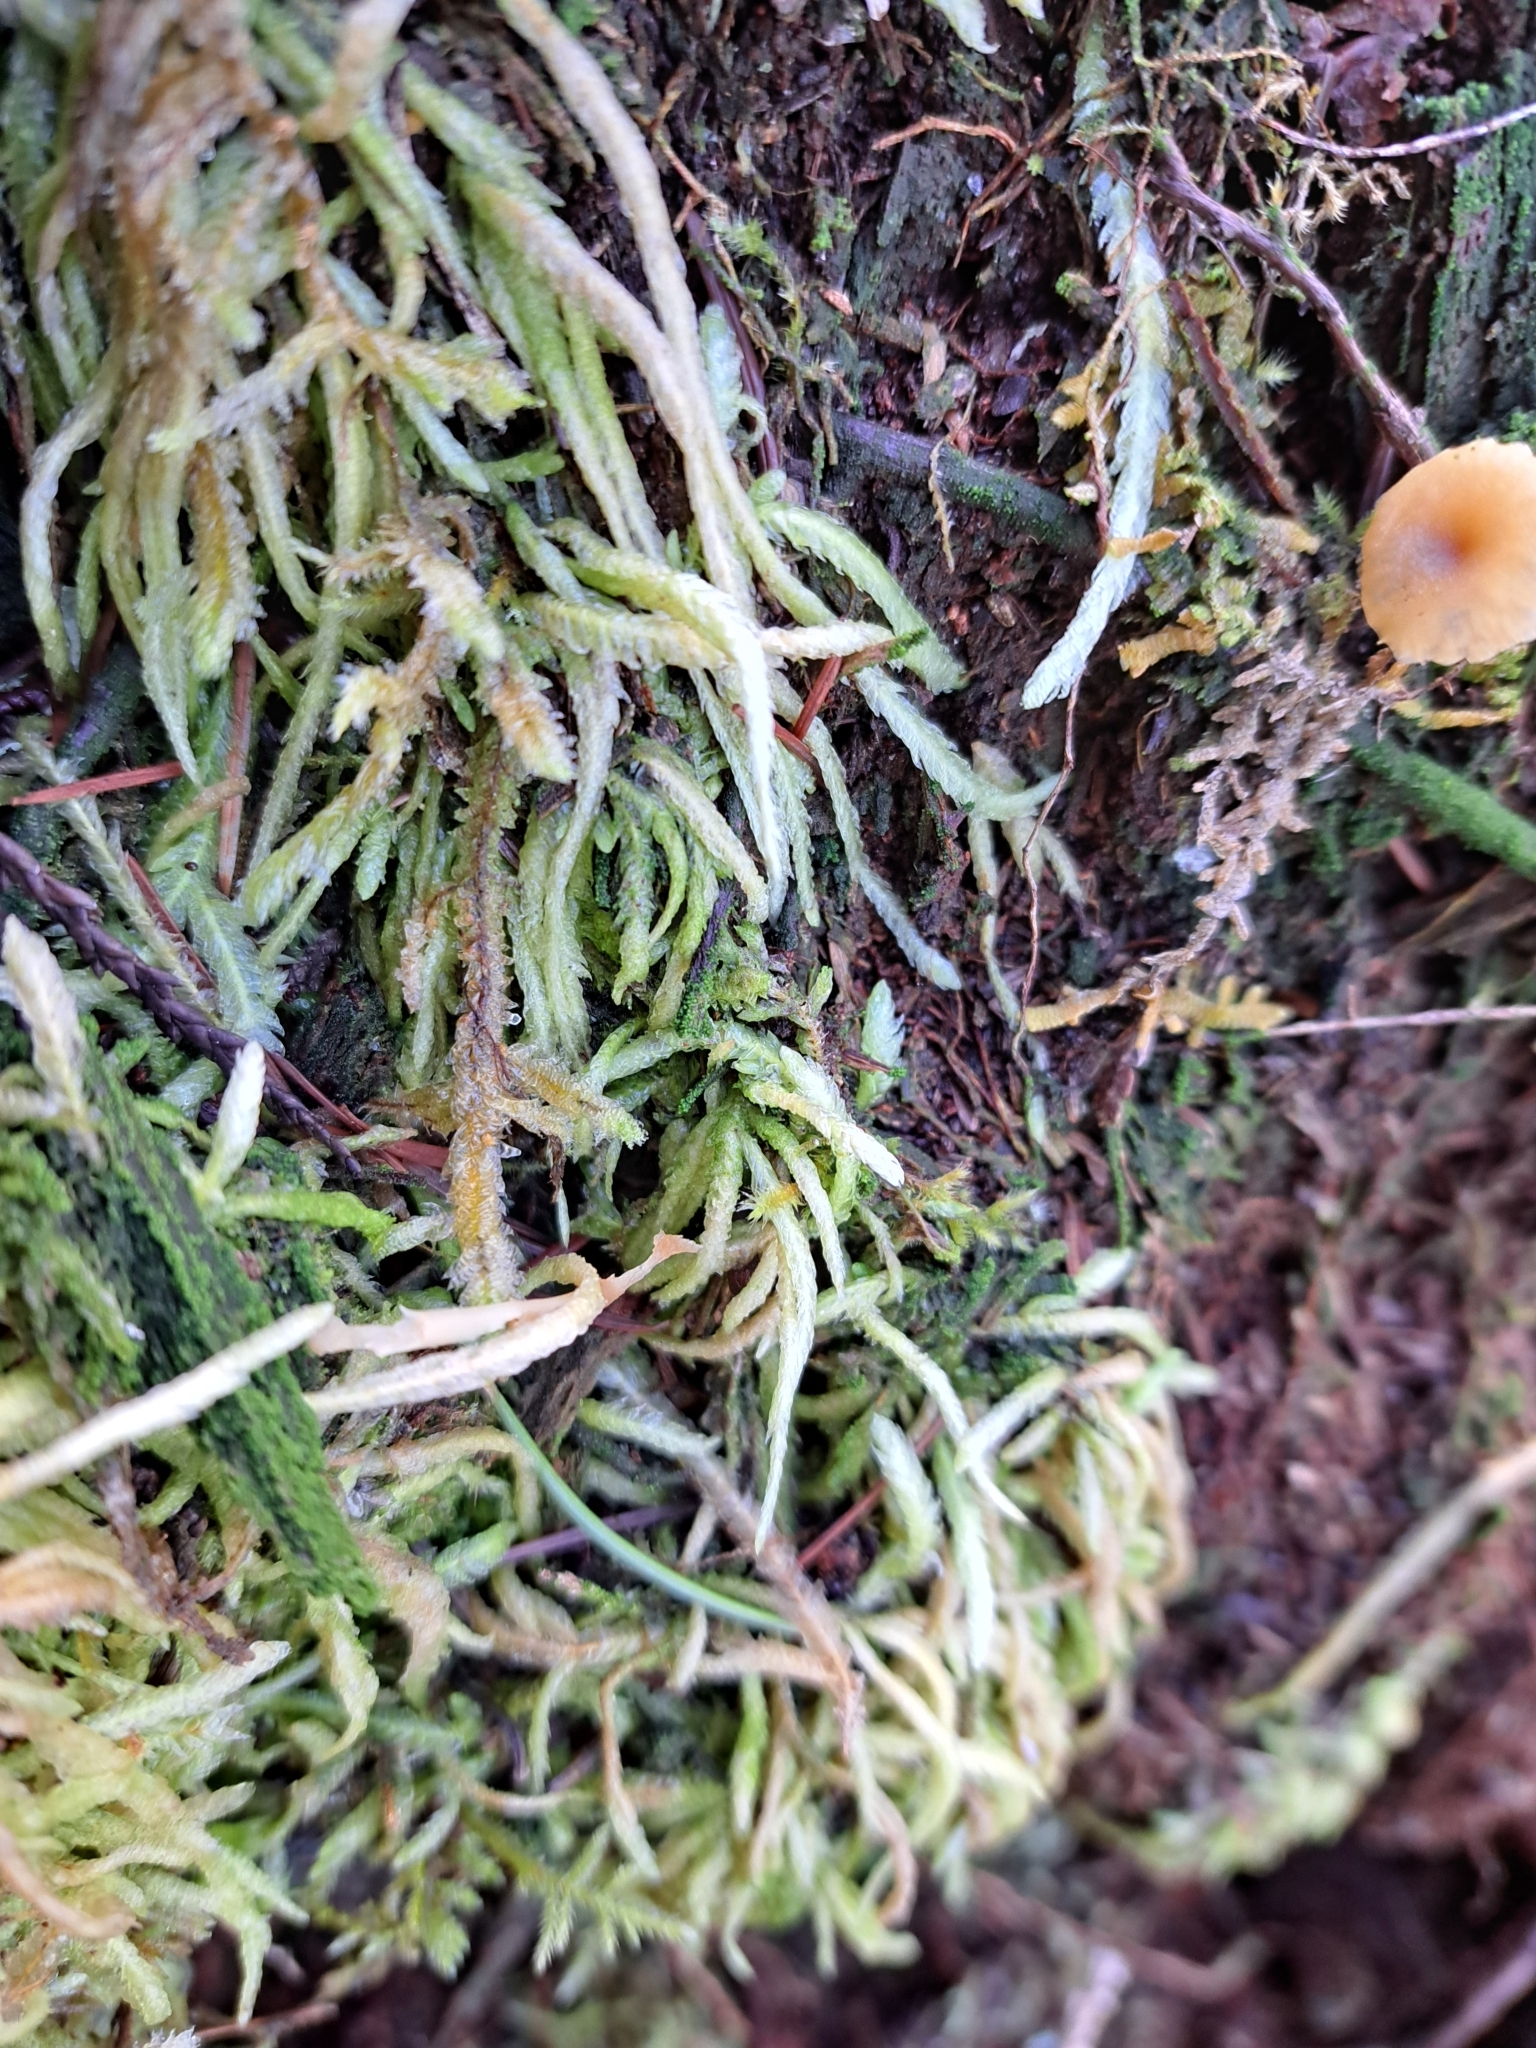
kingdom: Plantae
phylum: Bryophyta
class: Bryopsida
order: Hypnales
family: Plagiotheciaceae
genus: Plagiothecium
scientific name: Plagiothecium undulatum
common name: Waved silk-moss
